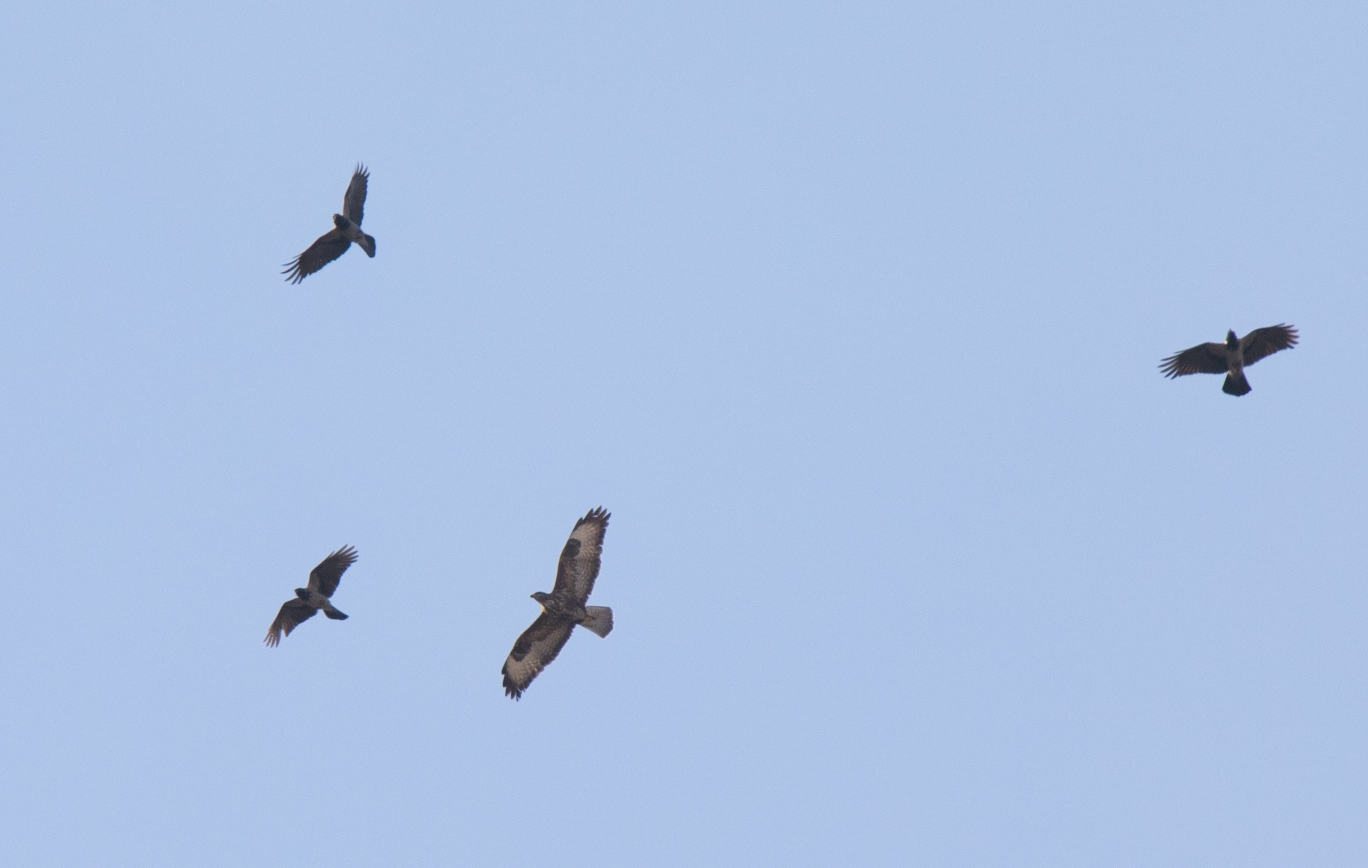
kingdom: Animalia
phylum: Chordata
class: Aves
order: Accipitriformes
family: Accipitridae
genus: Buteo
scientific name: Buteo buteo
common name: Common buzzard
